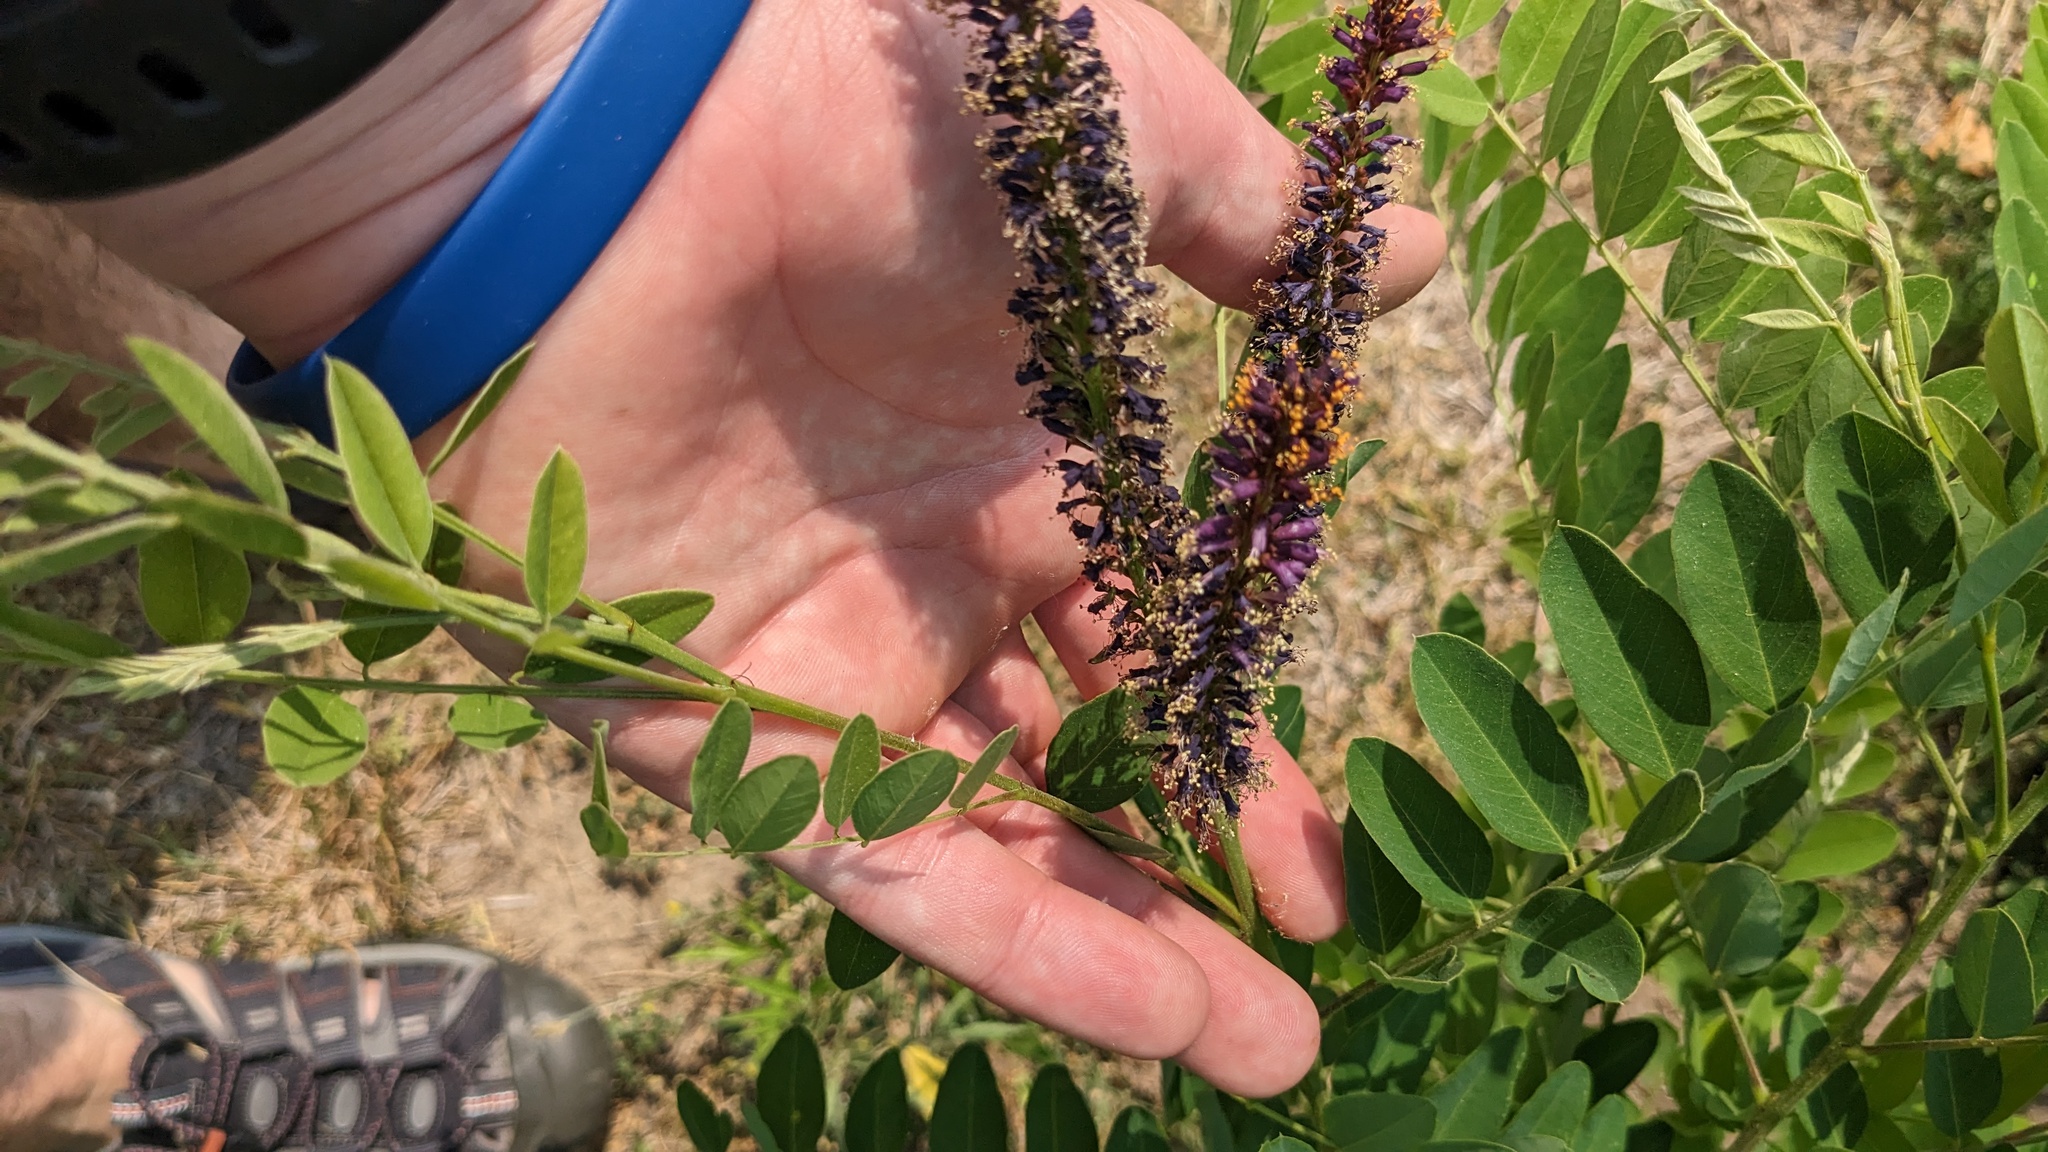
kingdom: Plantae
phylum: Tracheophyta
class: Magnoliopsida
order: Fabales
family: Fabaceae
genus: Amorpha
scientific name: Amorpha fruticosa
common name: False indigo
